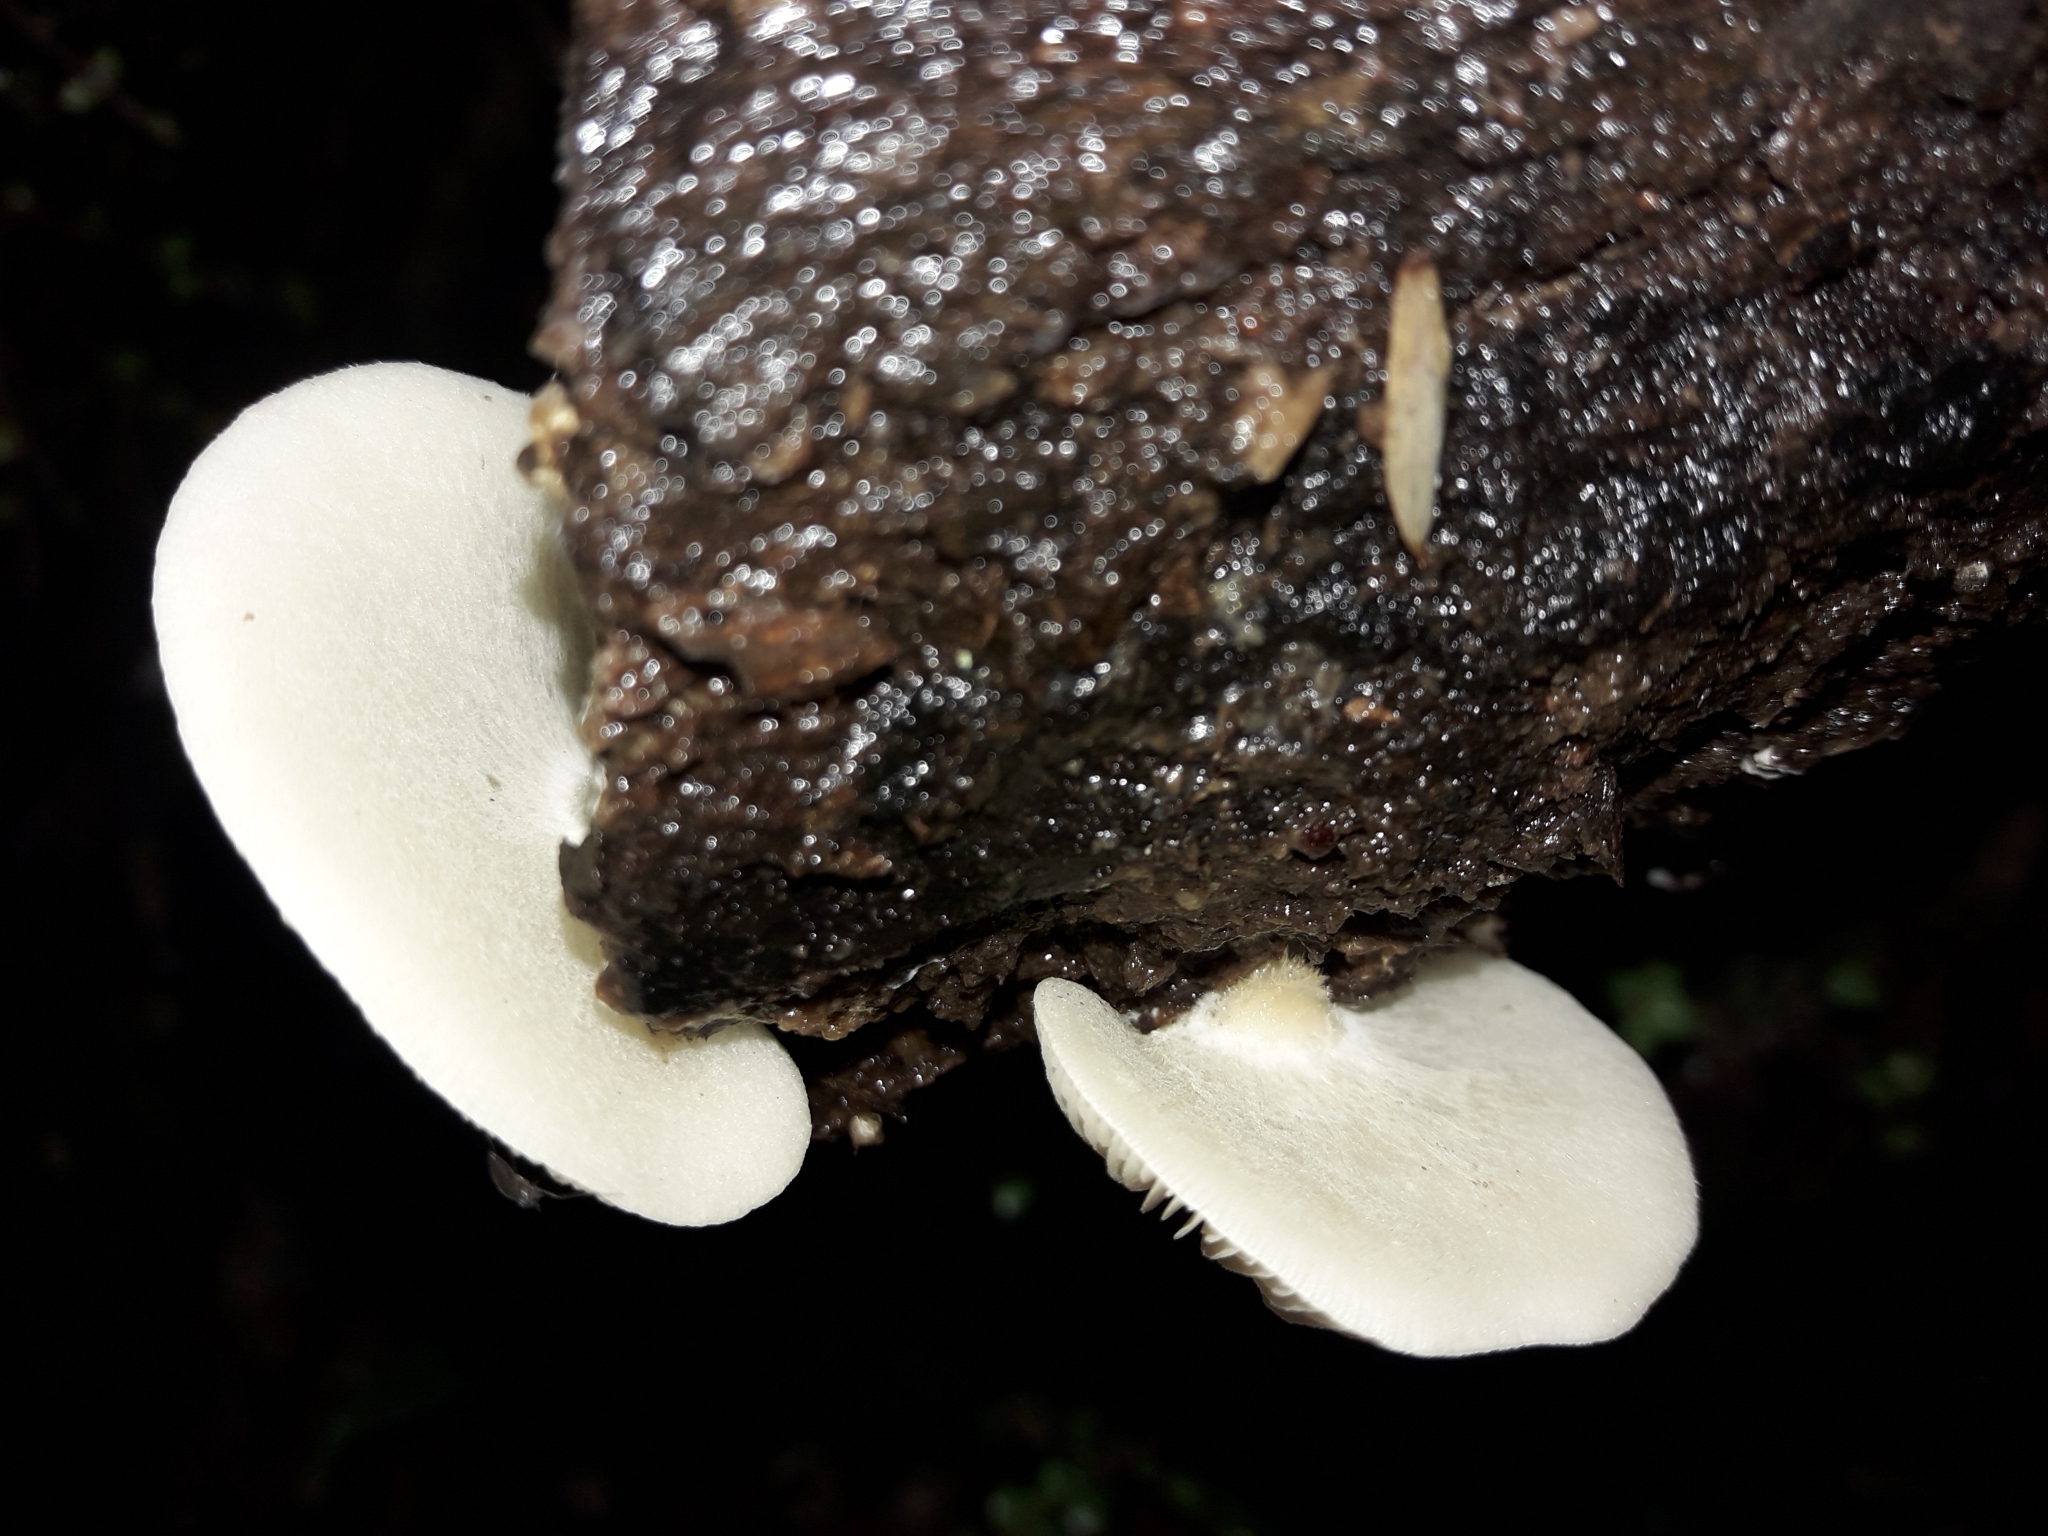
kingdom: Fungi
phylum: Basidiomycota
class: Agaricomycetes
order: Agaricales
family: Tricholomataceae
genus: Conchomyces
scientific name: Conchomyces bursiformis
